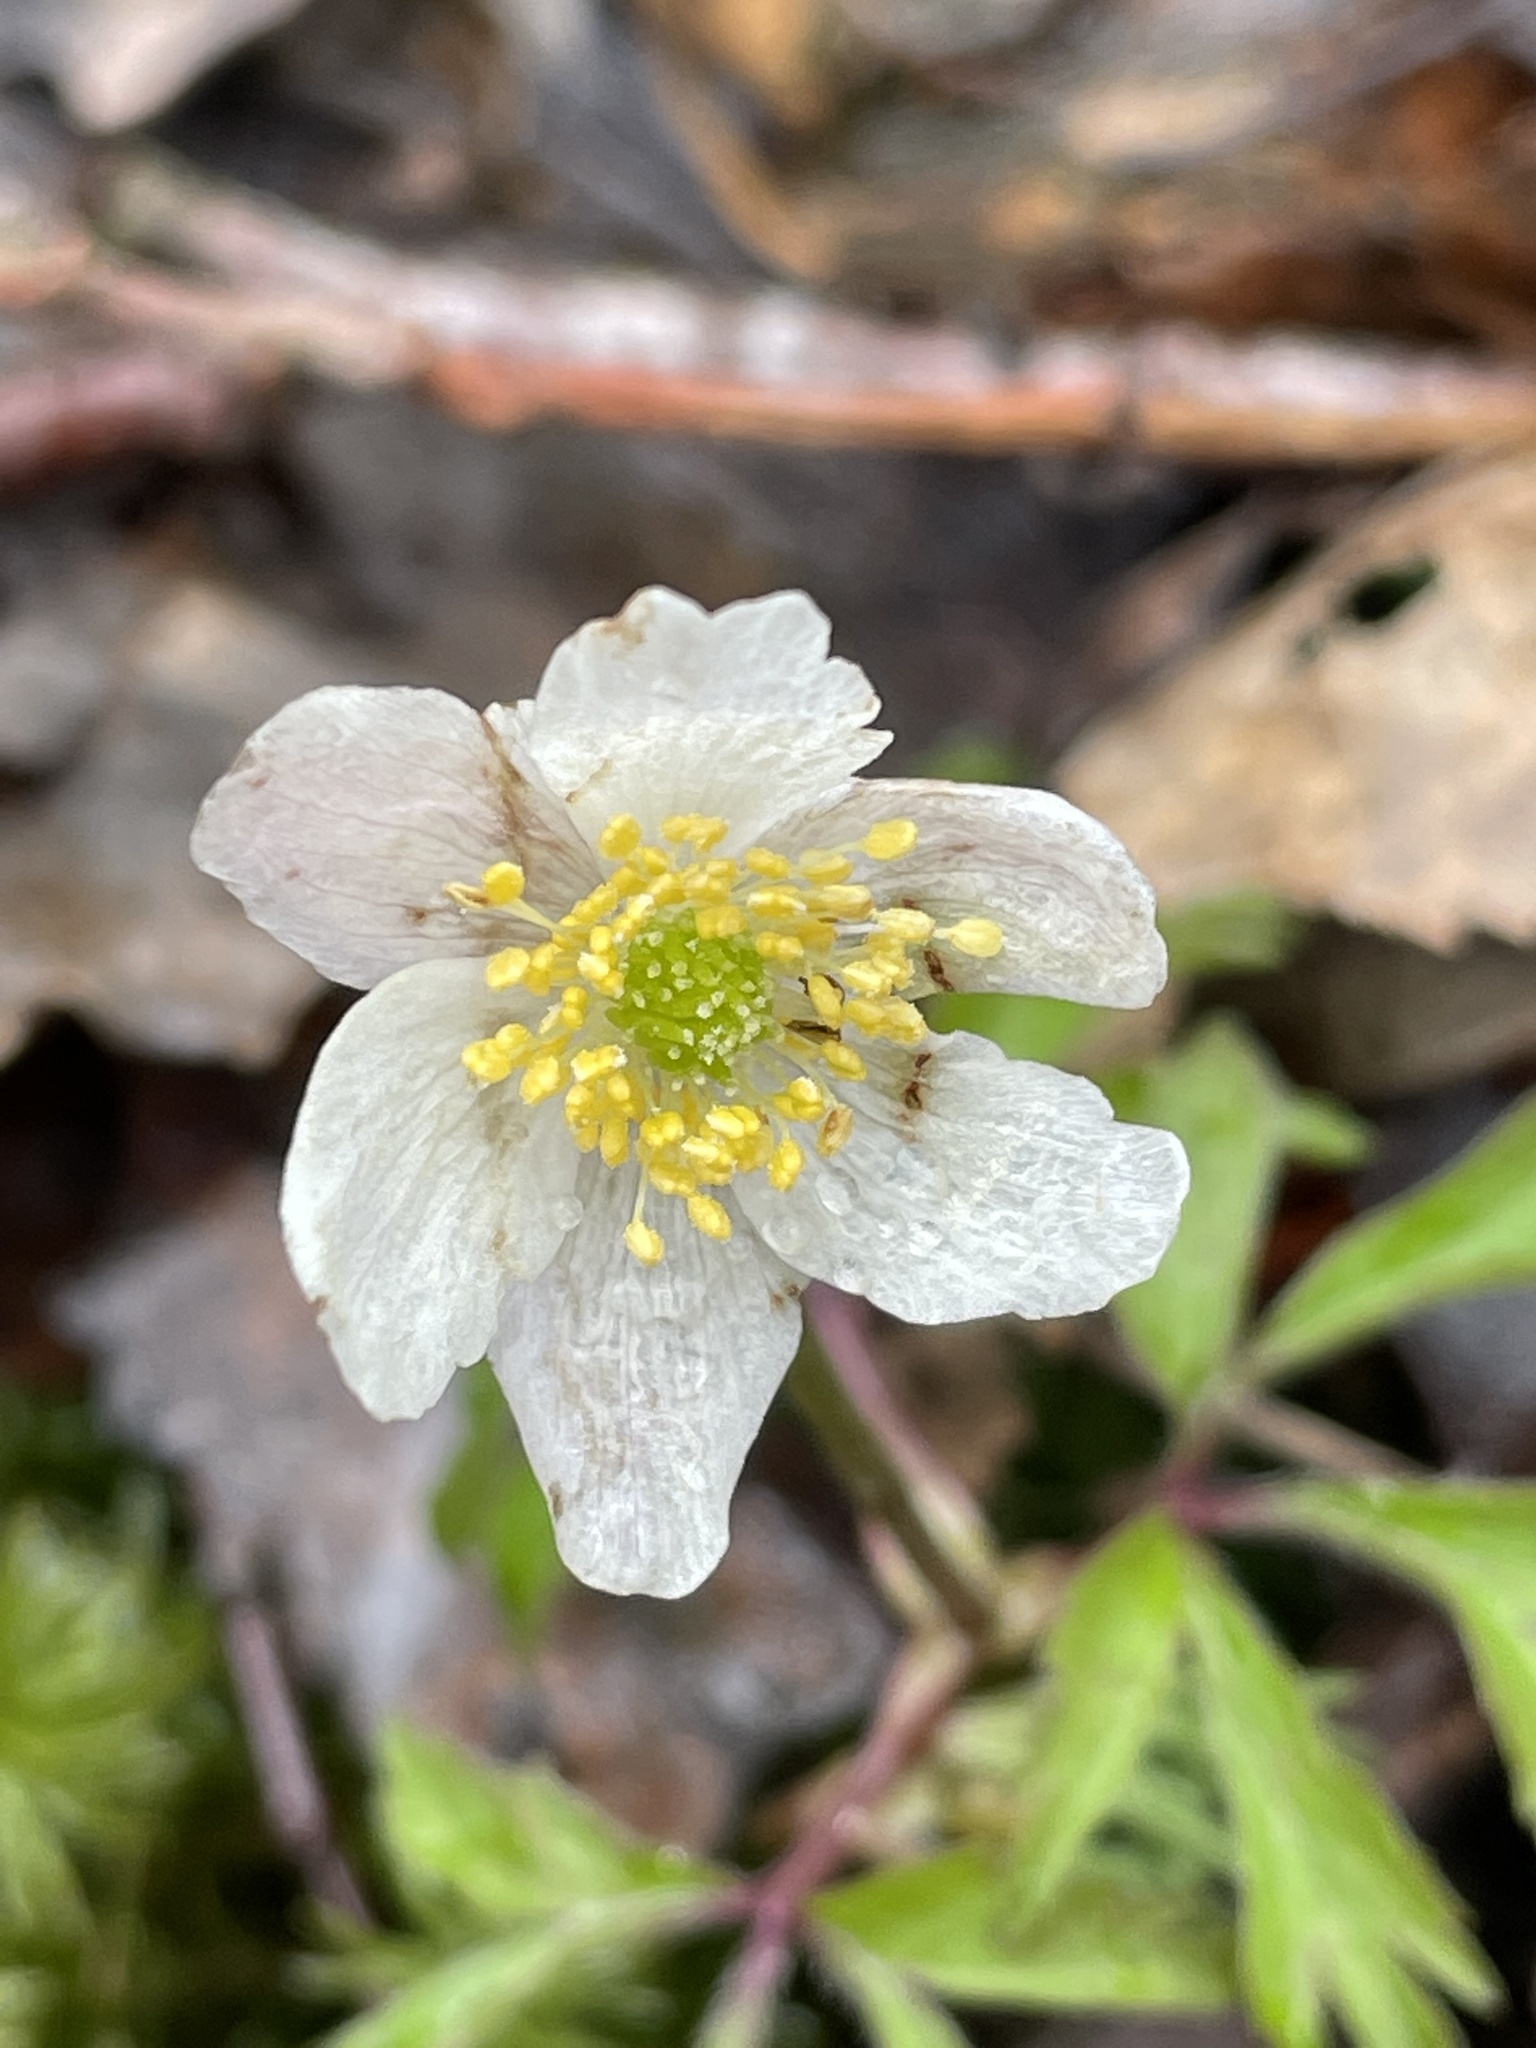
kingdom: Plantae
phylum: Tracheophyta
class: Magnoliopsida
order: Ranunculales
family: Ranunculaceae
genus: Anemone
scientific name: Anemone nemorosa
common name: Wood anemone
